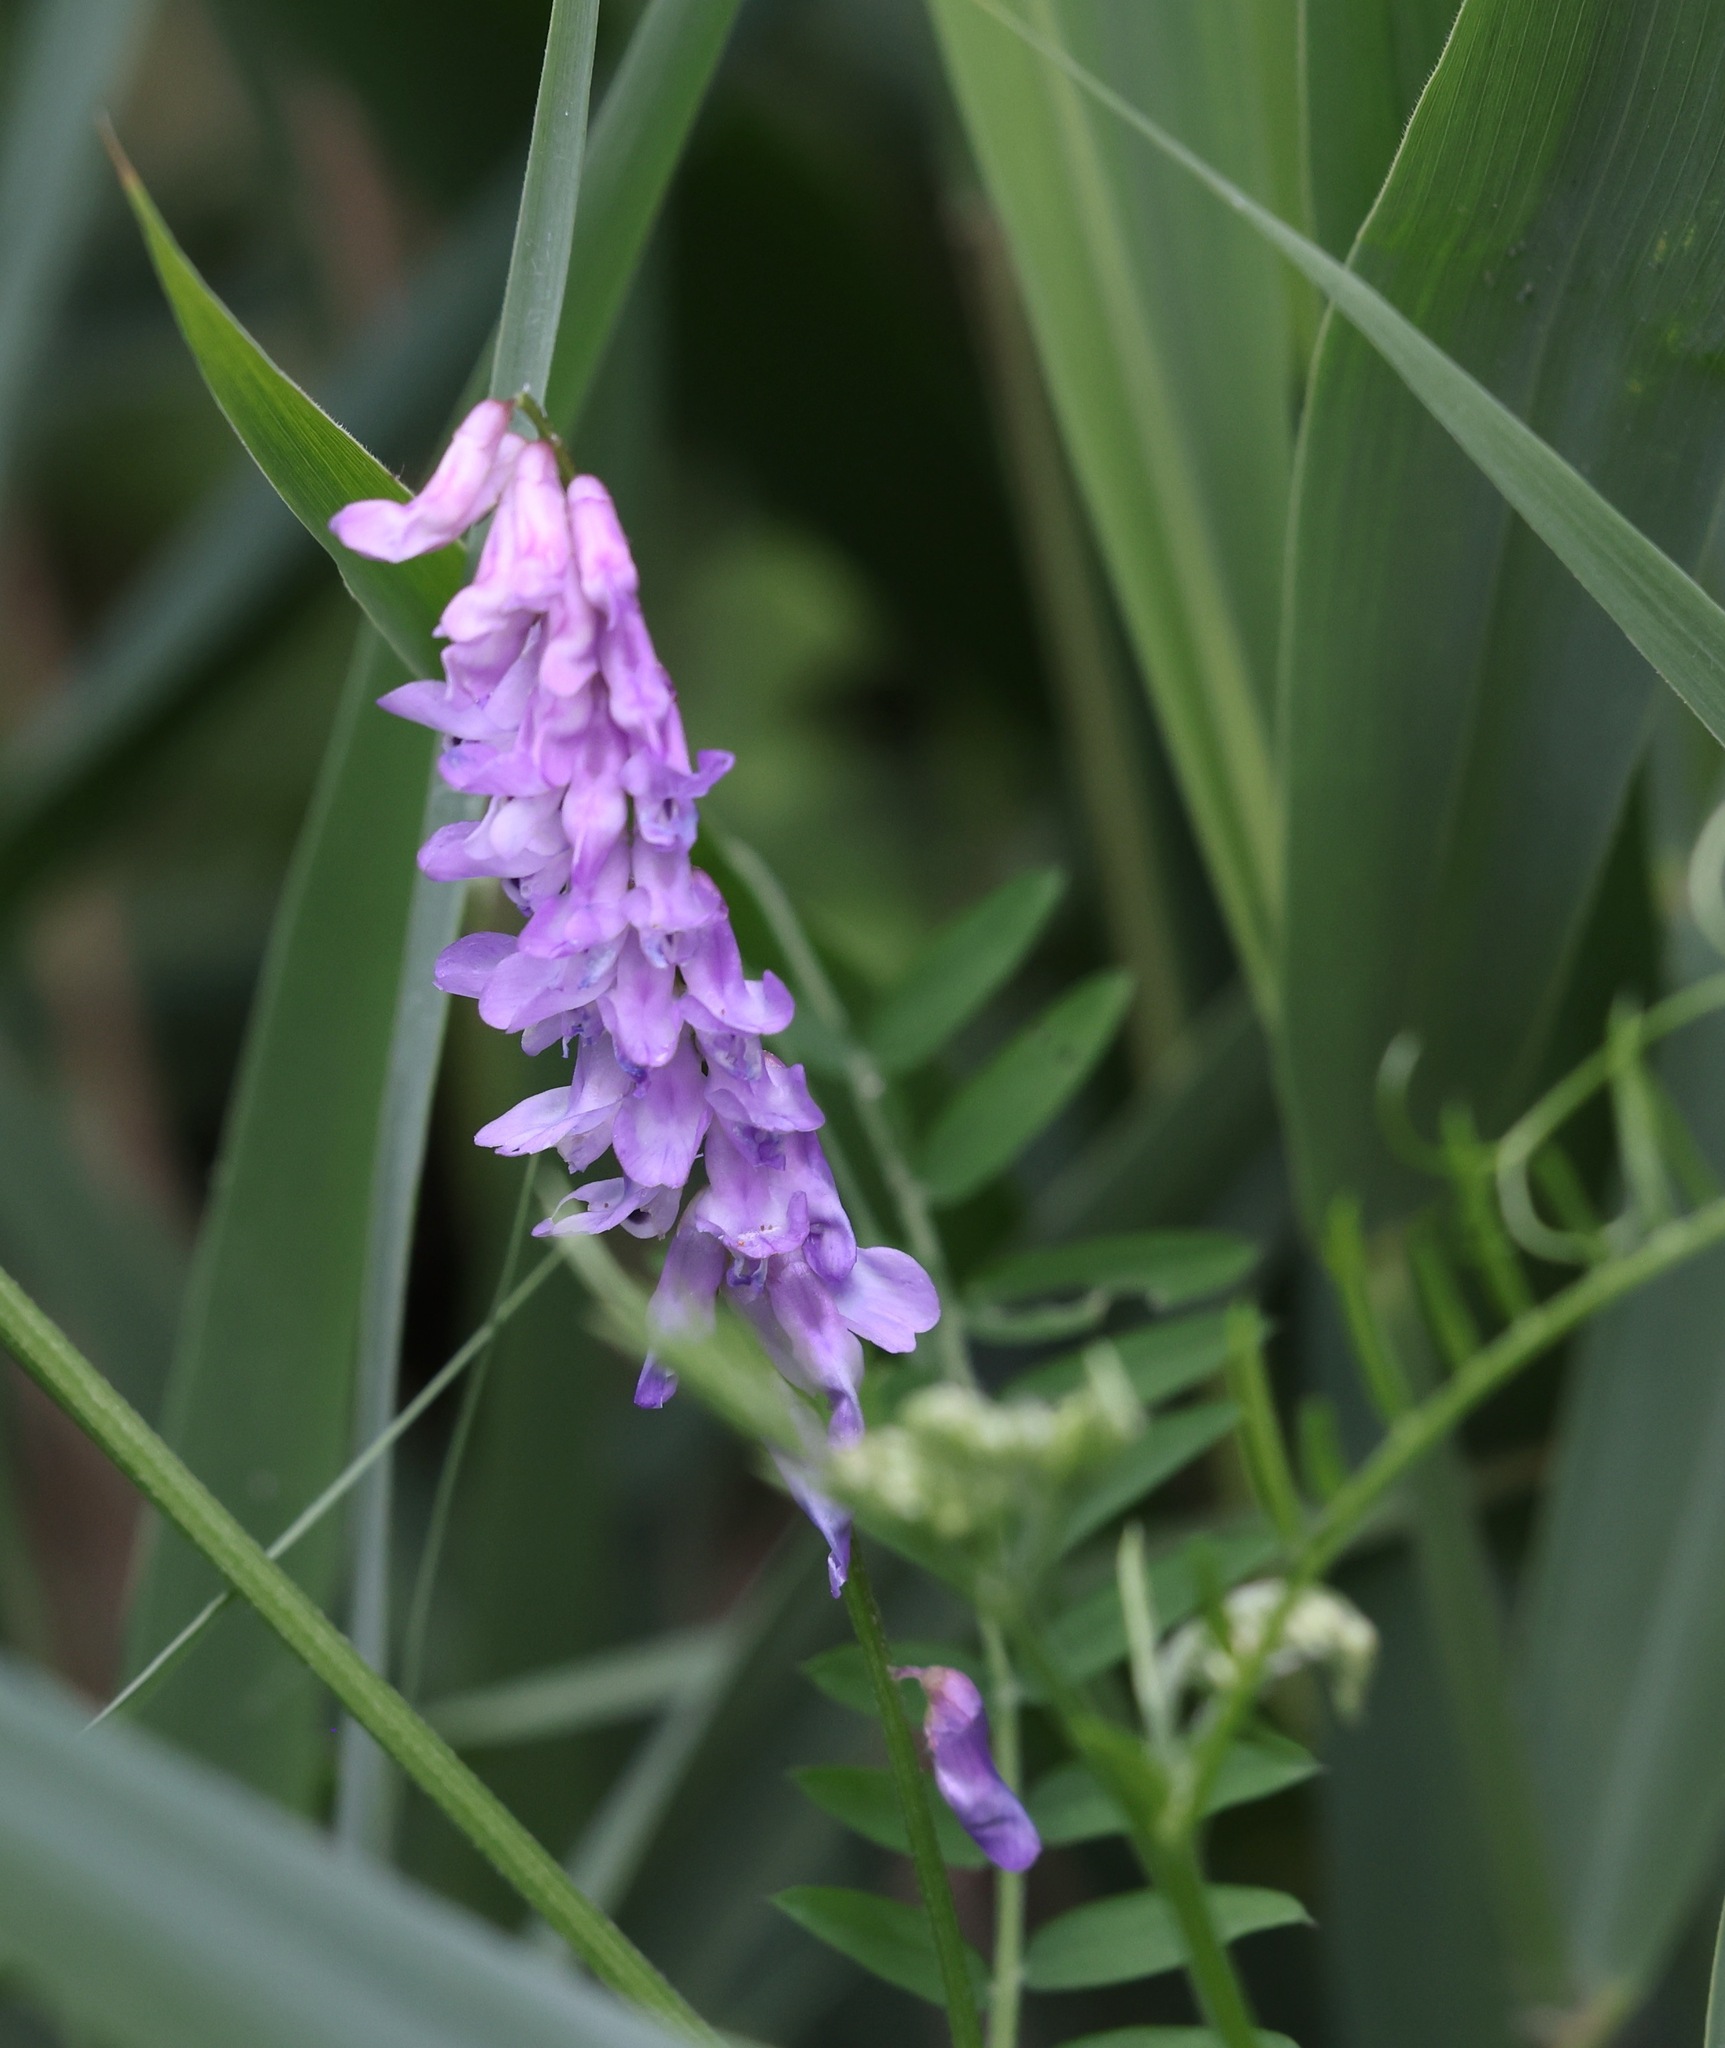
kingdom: Plantae
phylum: Tracheophyta
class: Magnoliopsida
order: Fabales
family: Fabaceae
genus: Vicia
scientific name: Vicia cracca
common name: Bird vetch
